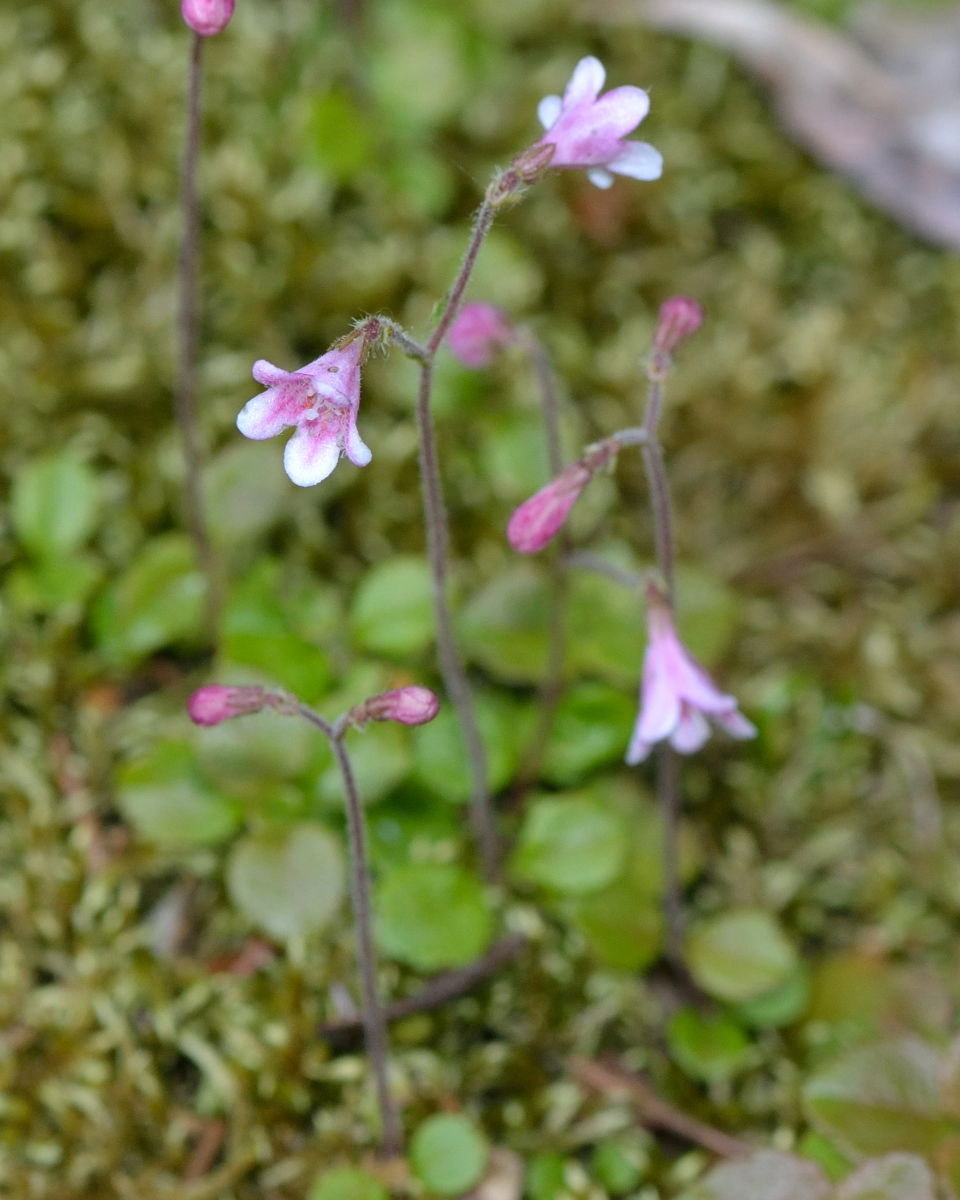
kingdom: Plantae
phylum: Tracheophyta
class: Magnoliopsida
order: Dipsacales
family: Caprifoliaceae
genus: Linnaea
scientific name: Linnaea borealis
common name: Twinflower
